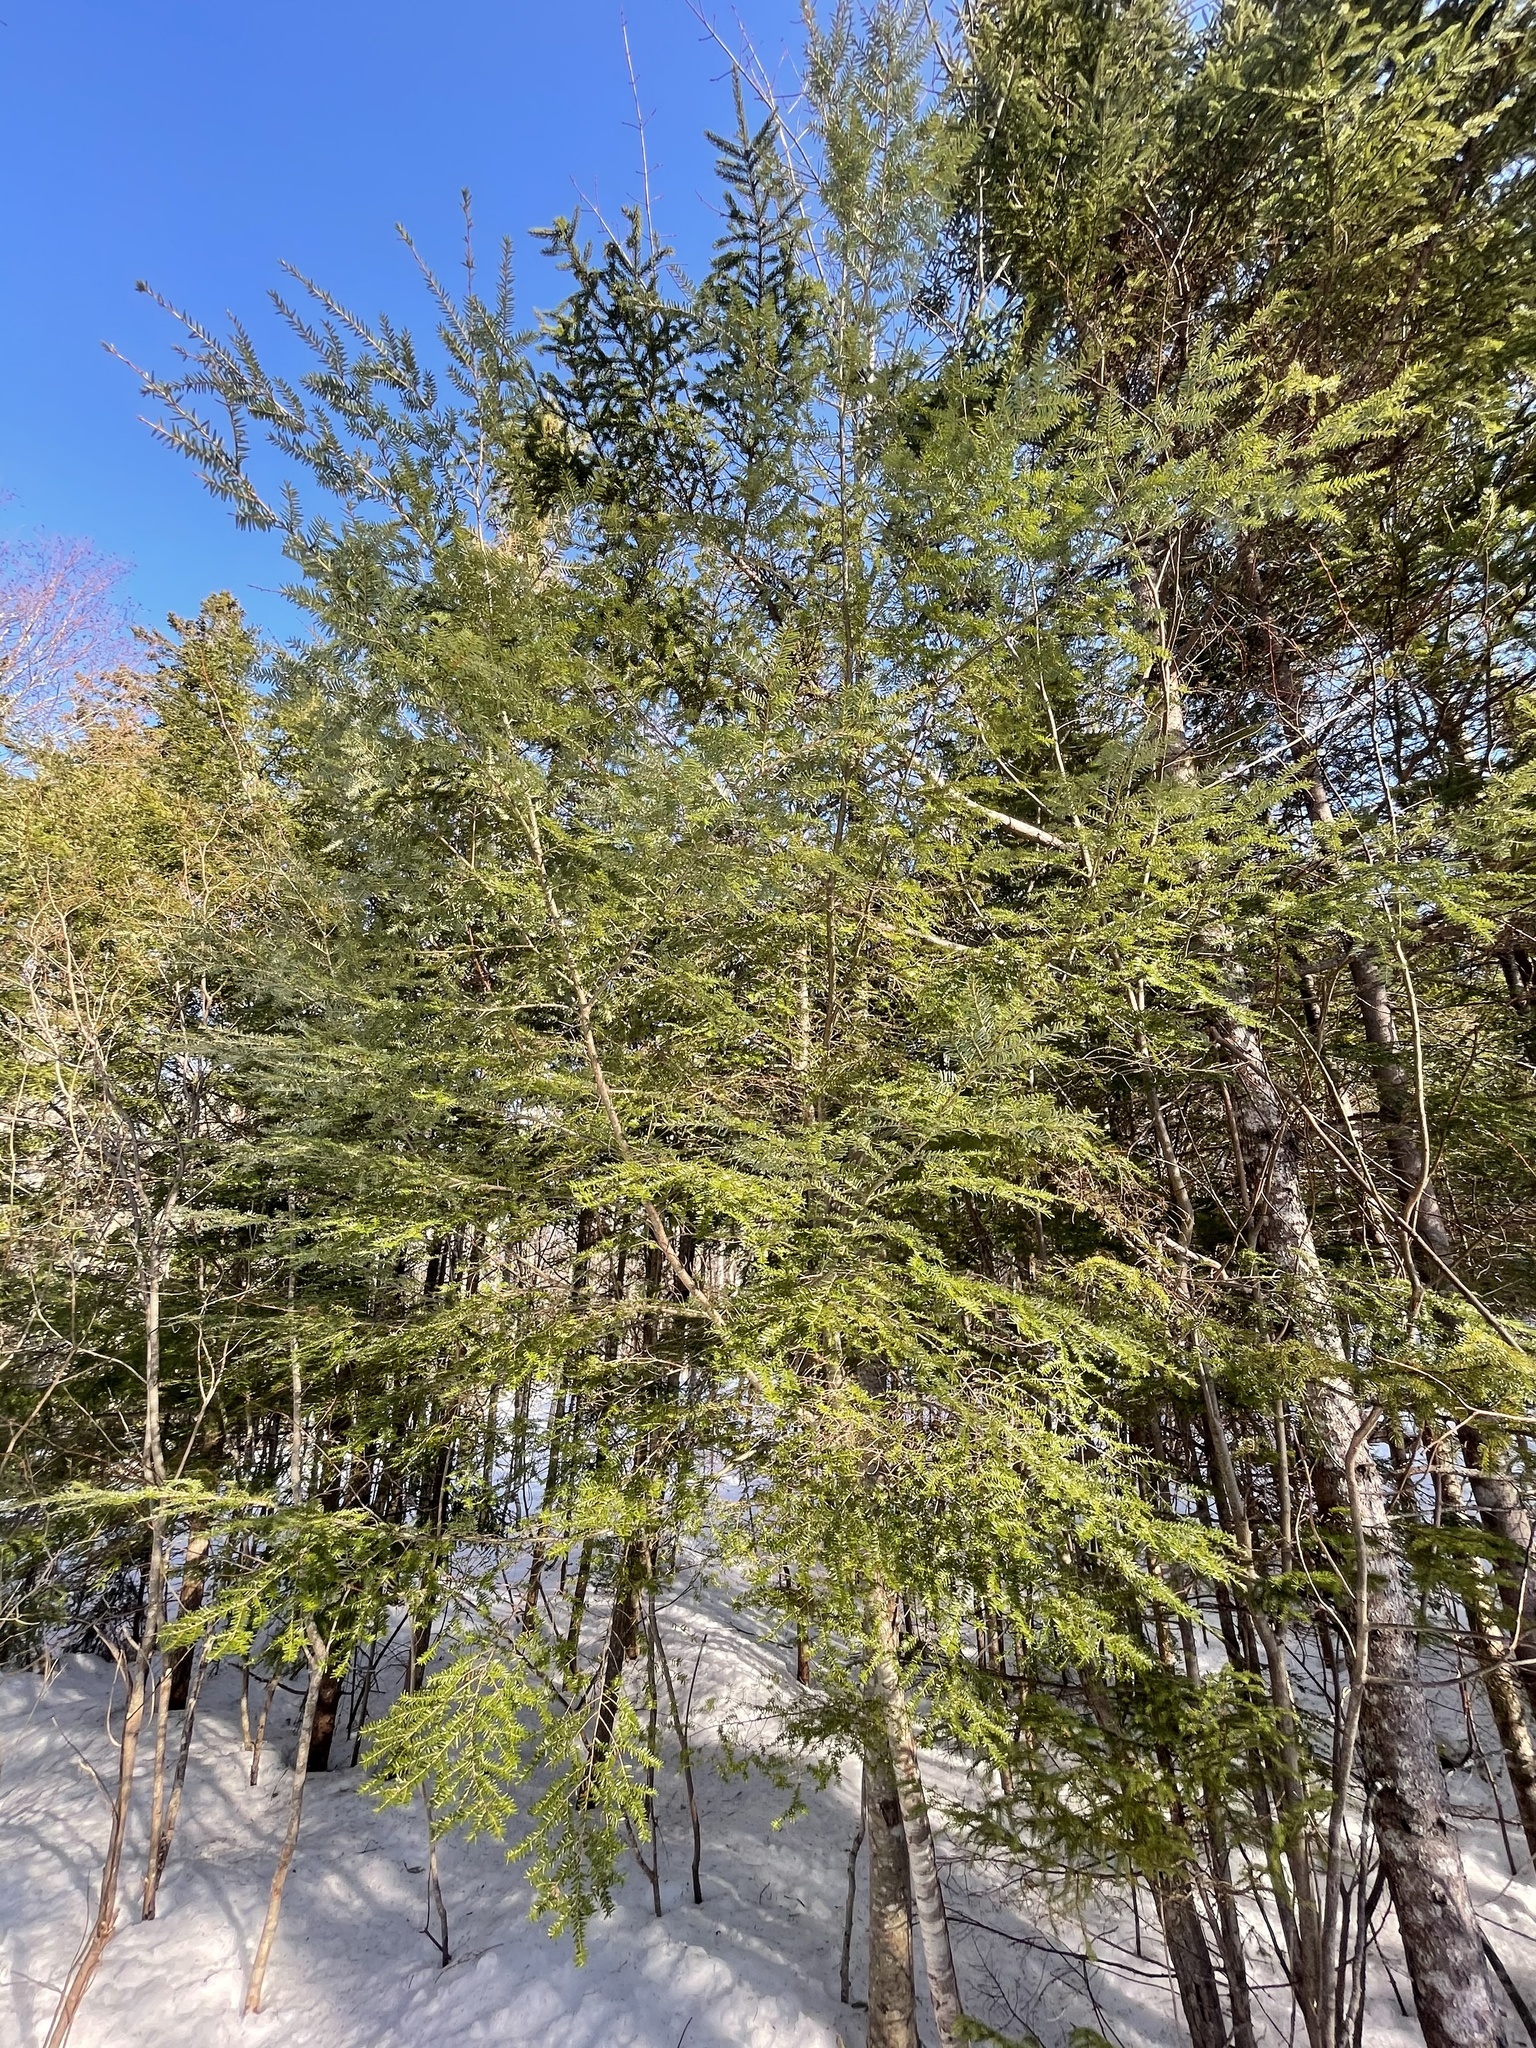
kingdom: Plantae
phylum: Tracheophyta
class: Pinopsida
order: Pinales
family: Pinaceae
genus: Tsuga
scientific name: Tsuga canadensis
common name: Eastern hemlock
